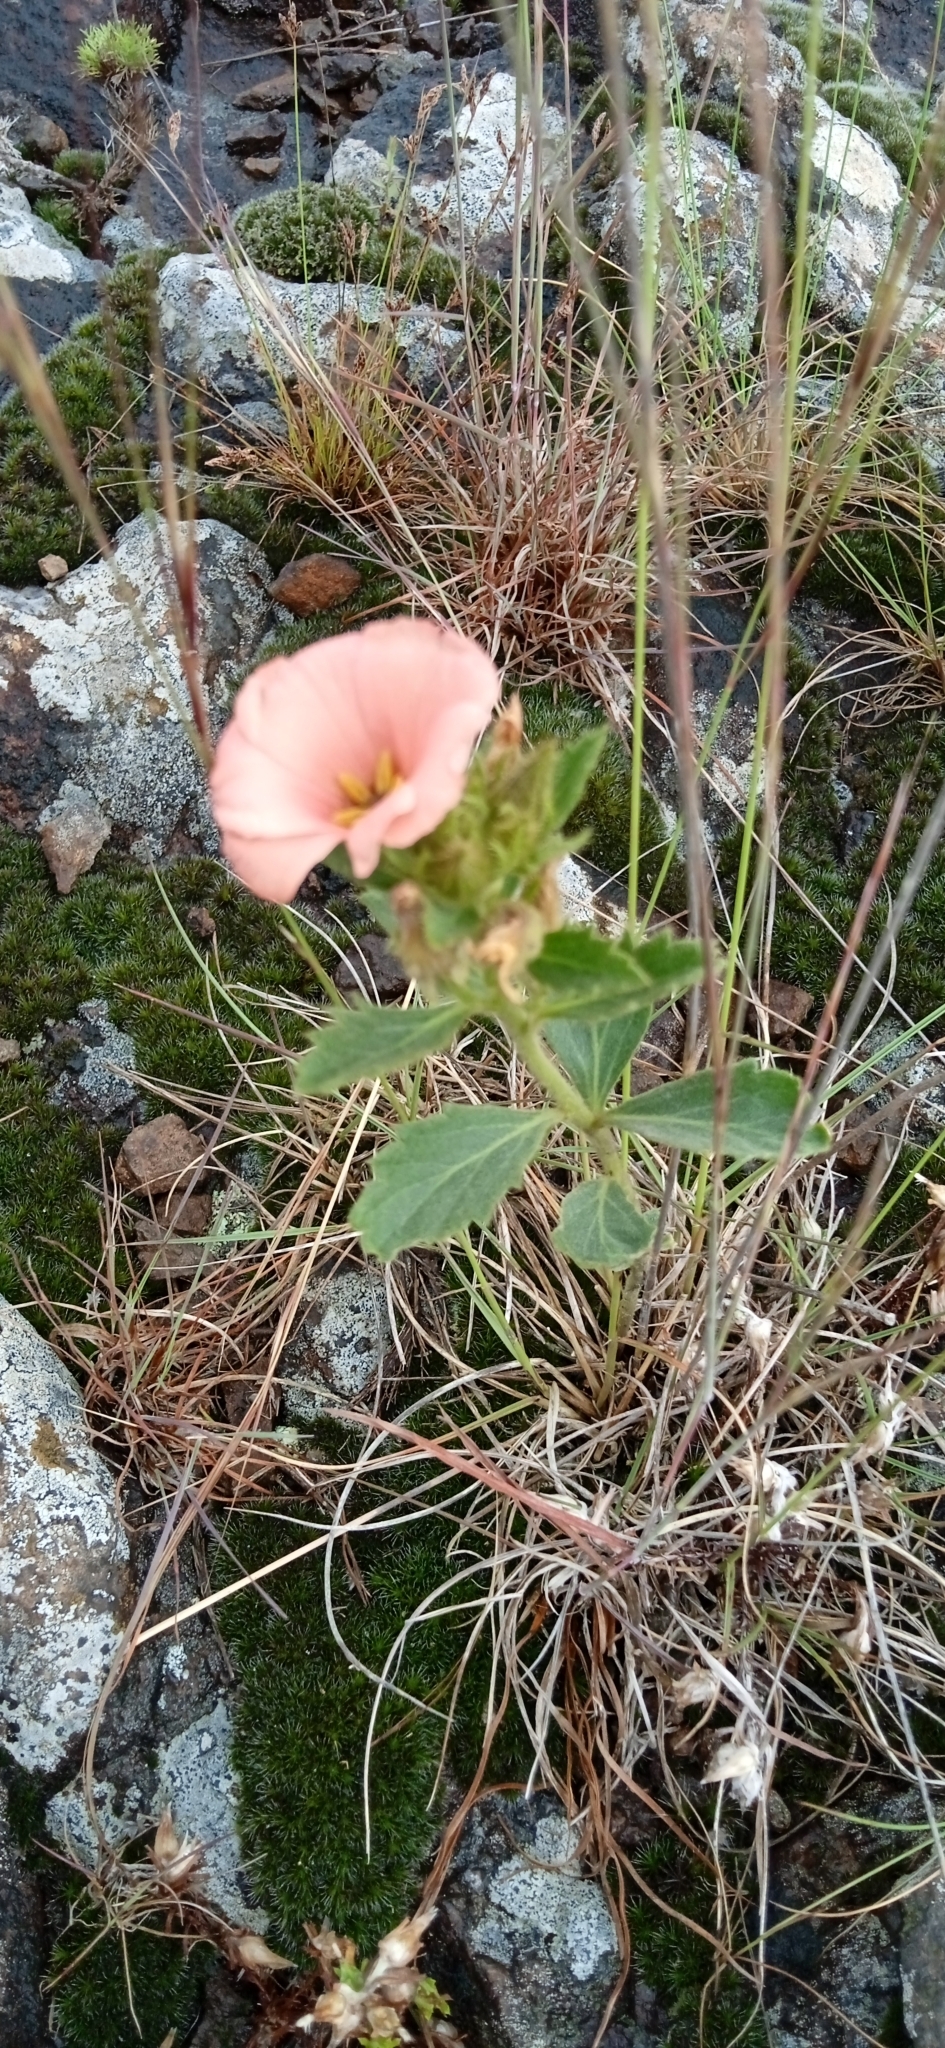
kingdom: Plantae
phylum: Tracheophyta
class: Magnoliopsida
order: Malpighiales
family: Turneraceae
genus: Turnera
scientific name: Turnera sidoides
